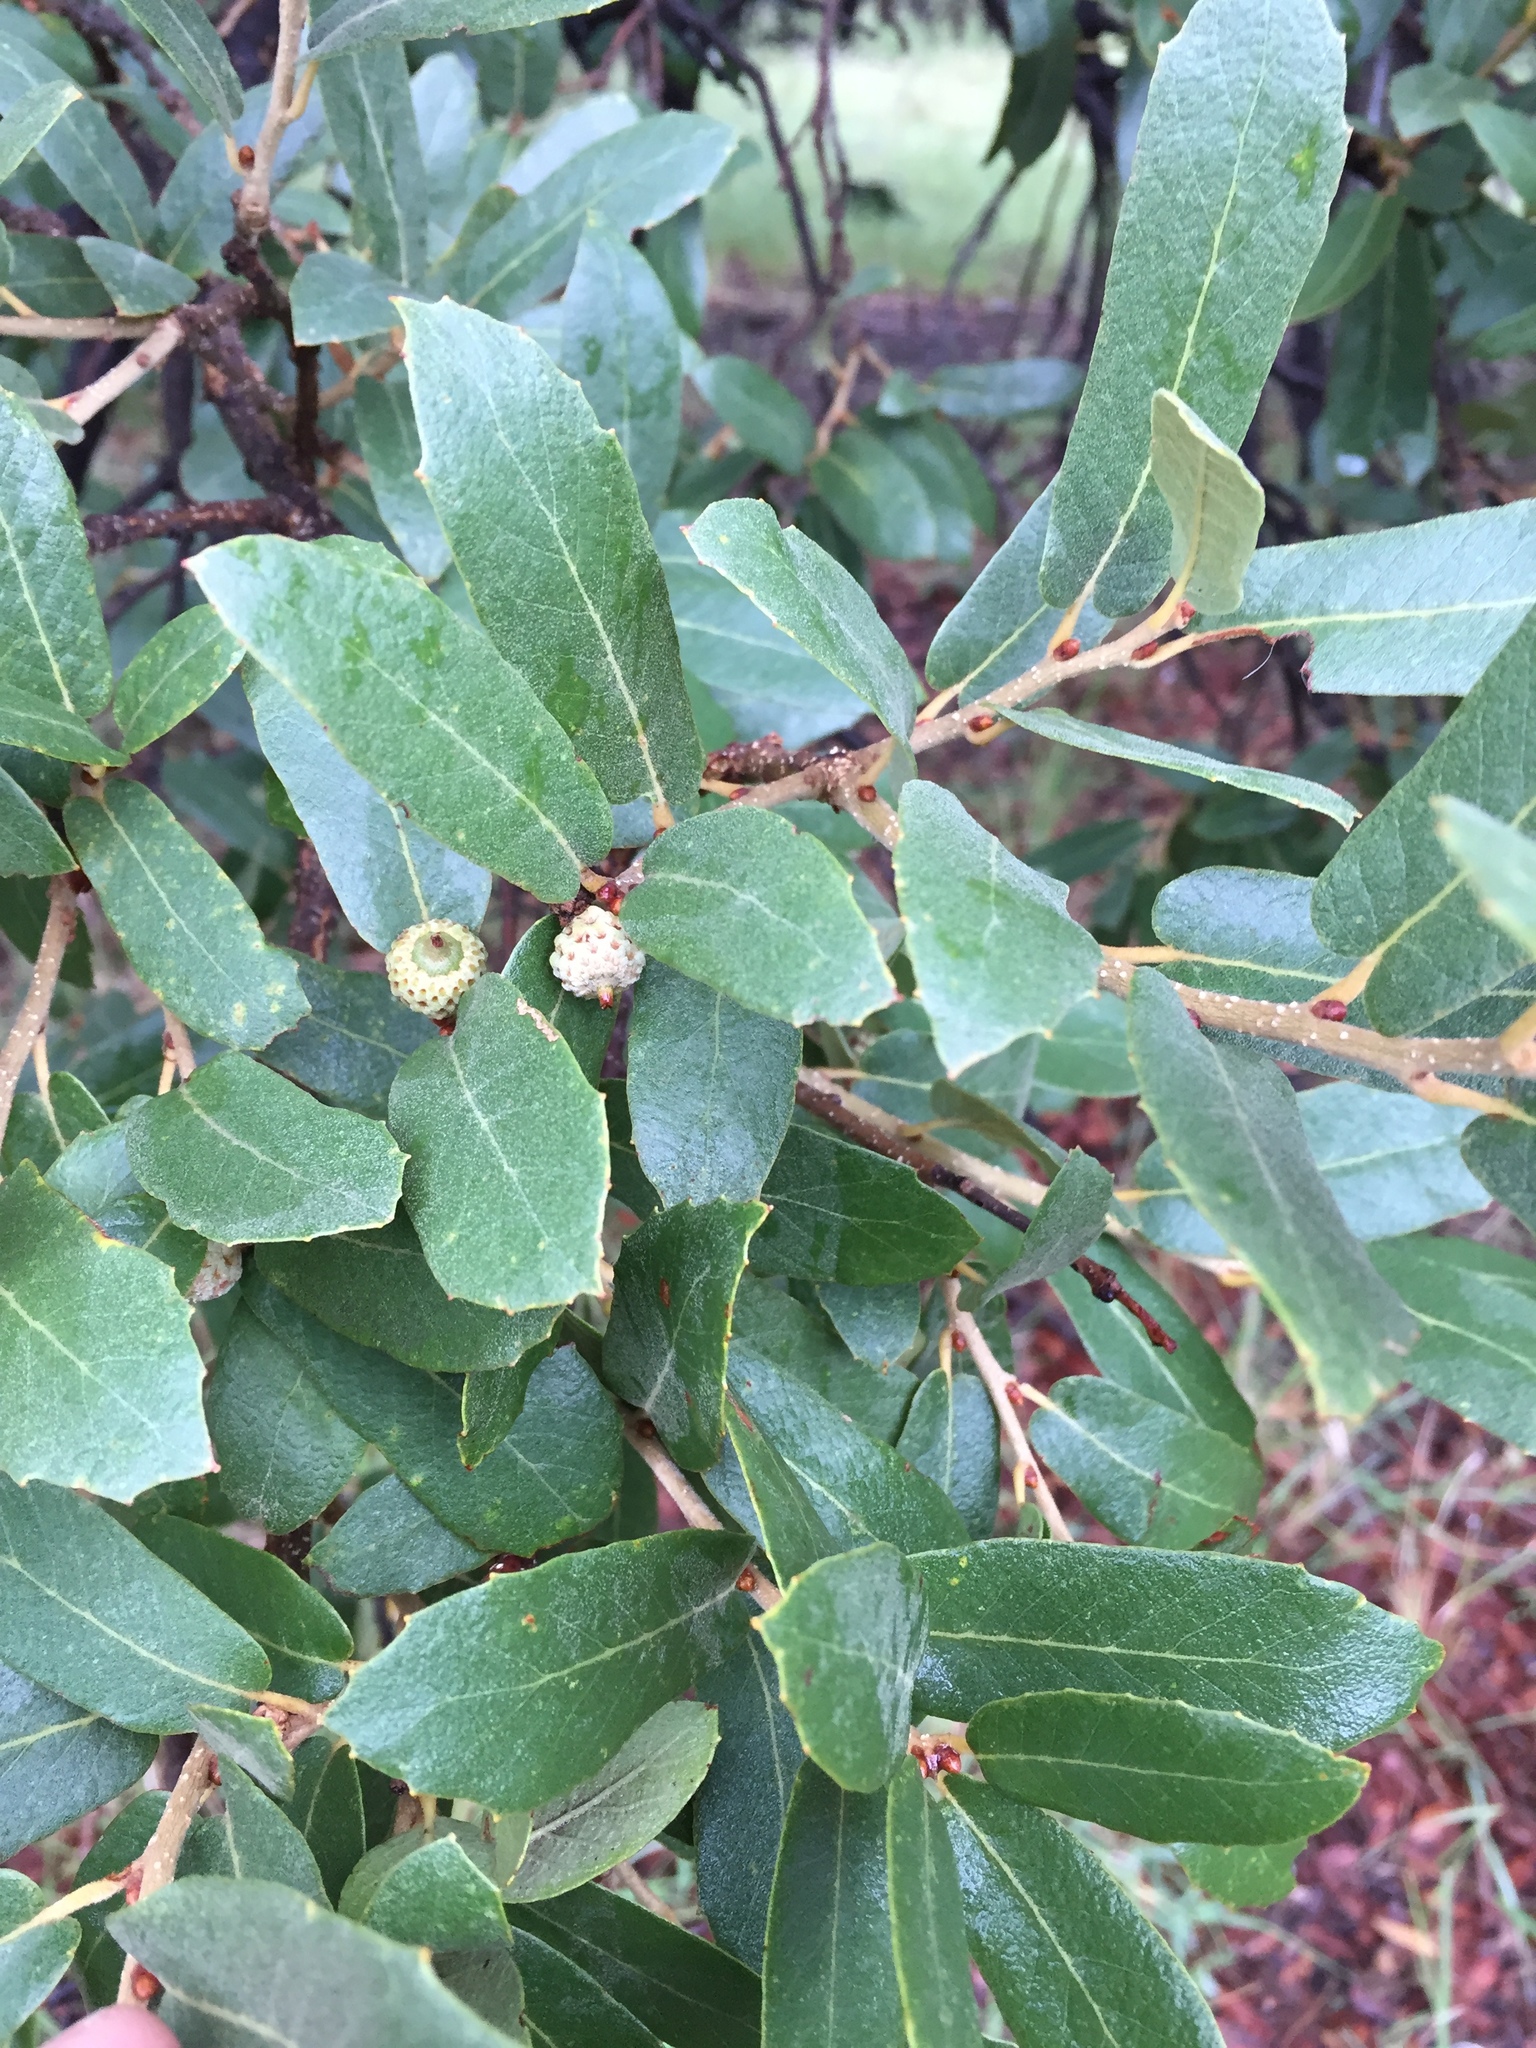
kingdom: Plantae
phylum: Tracheophyta
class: Magnoliopsida
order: Fagales
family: Fagaceae
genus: Quercus
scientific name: Quercus emoryi
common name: Emory oak
